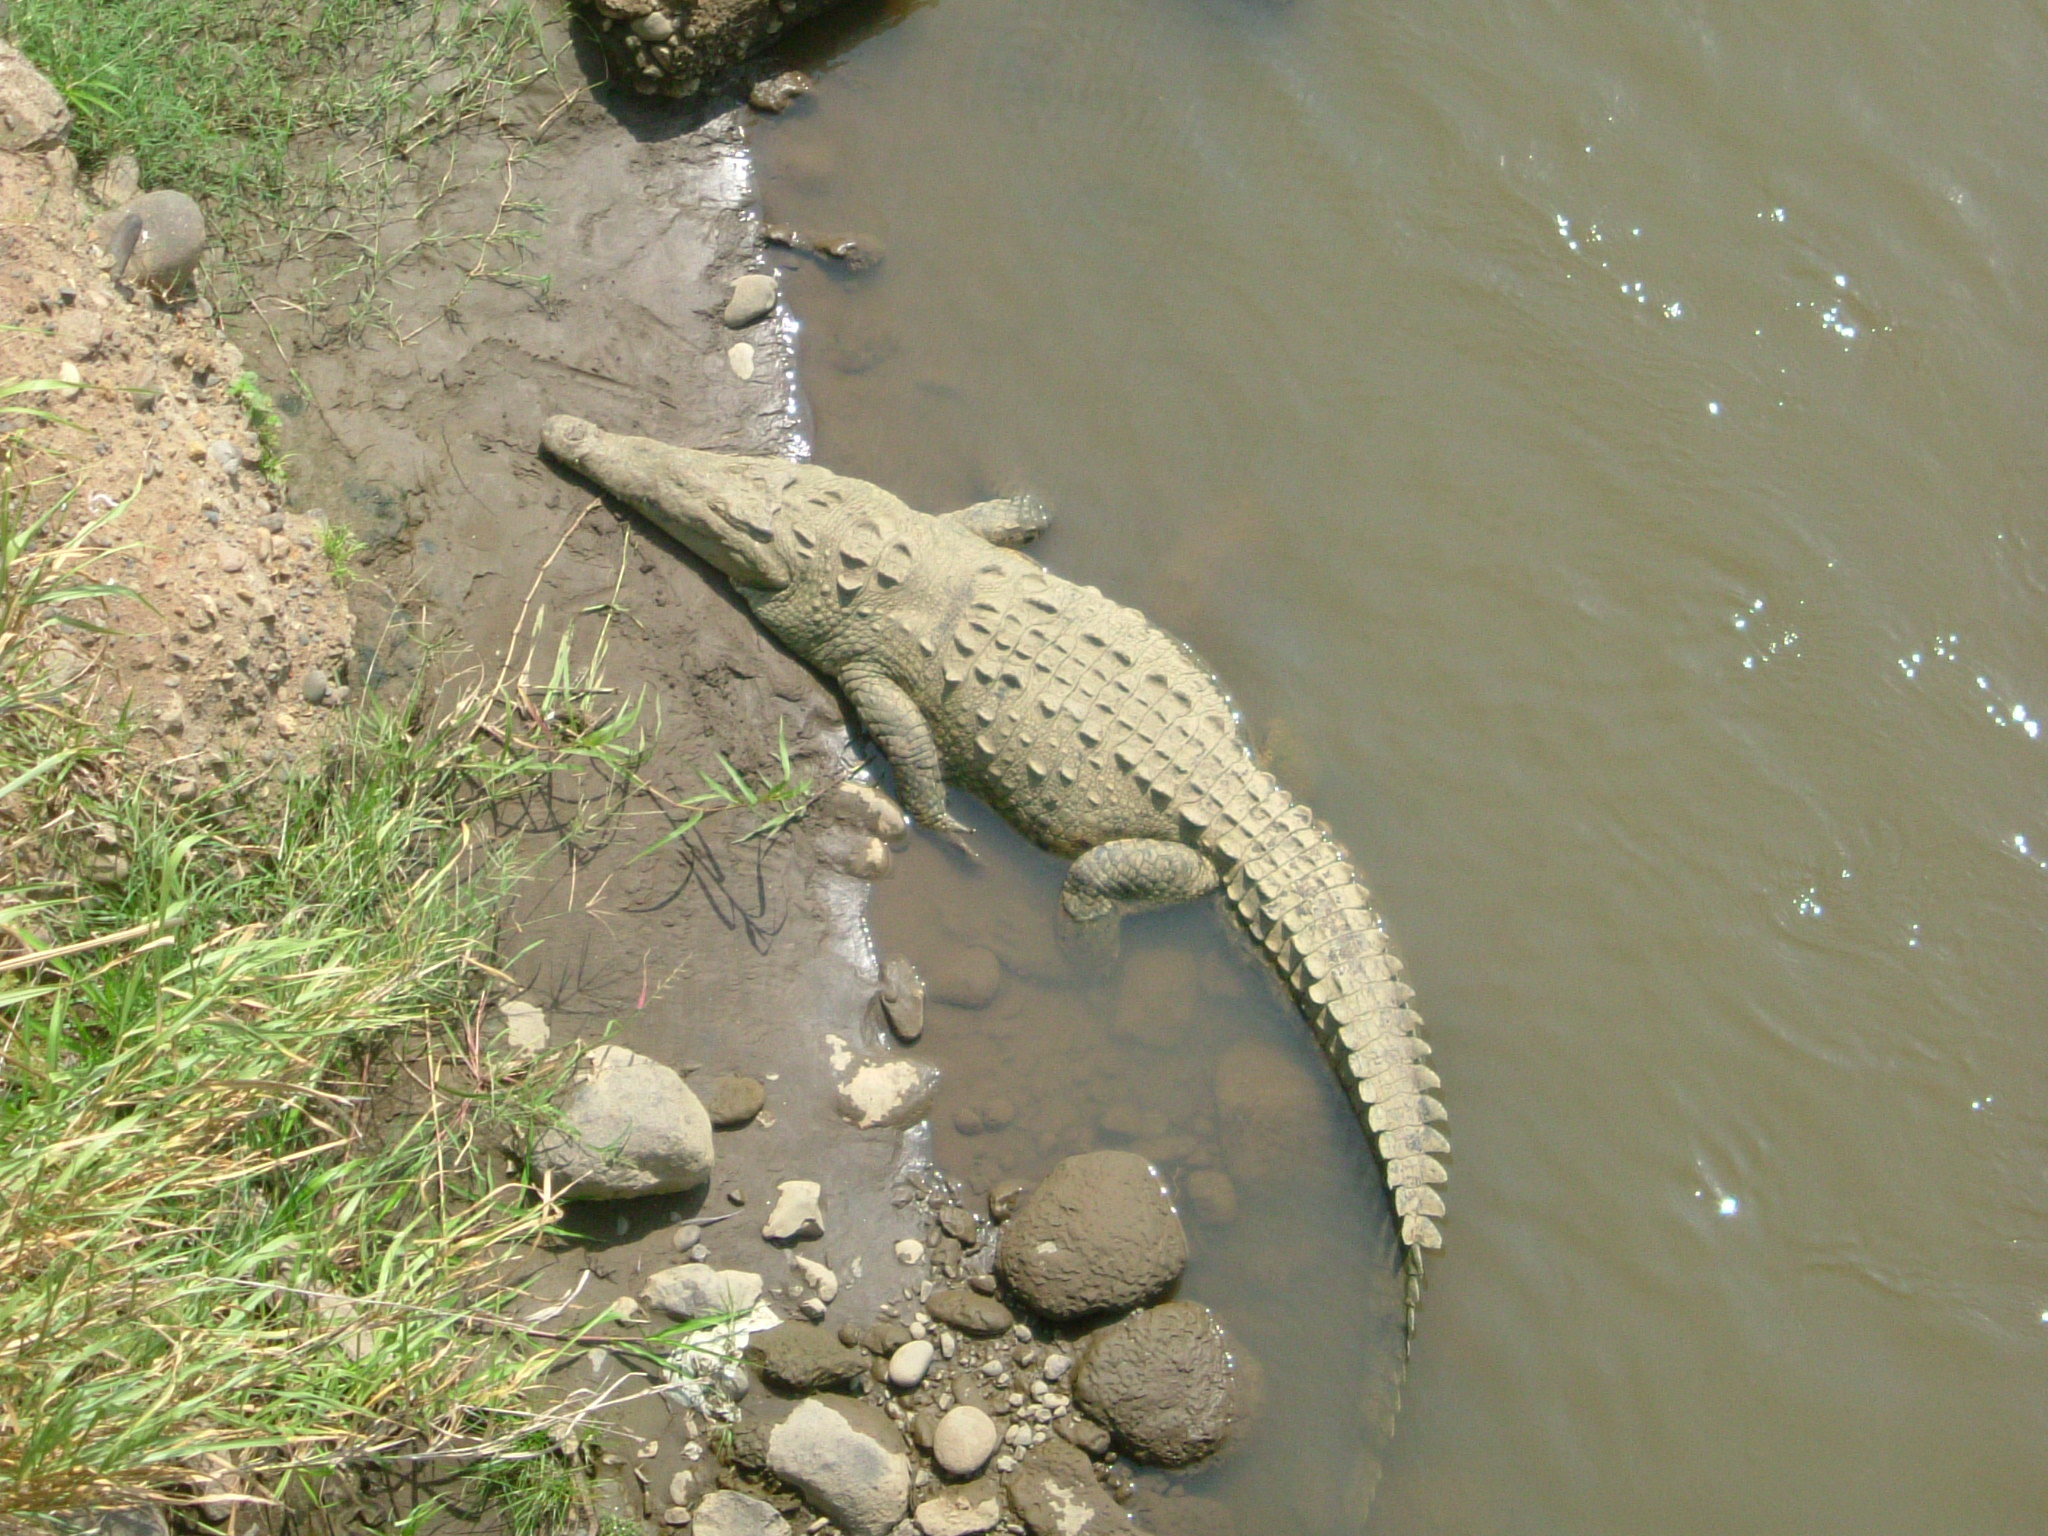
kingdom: Animalia
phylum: Chordata
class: Crocodylia
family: Crocodylidae
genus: Crocodylus
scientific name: Crocodylus acutus
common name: American crocodile
